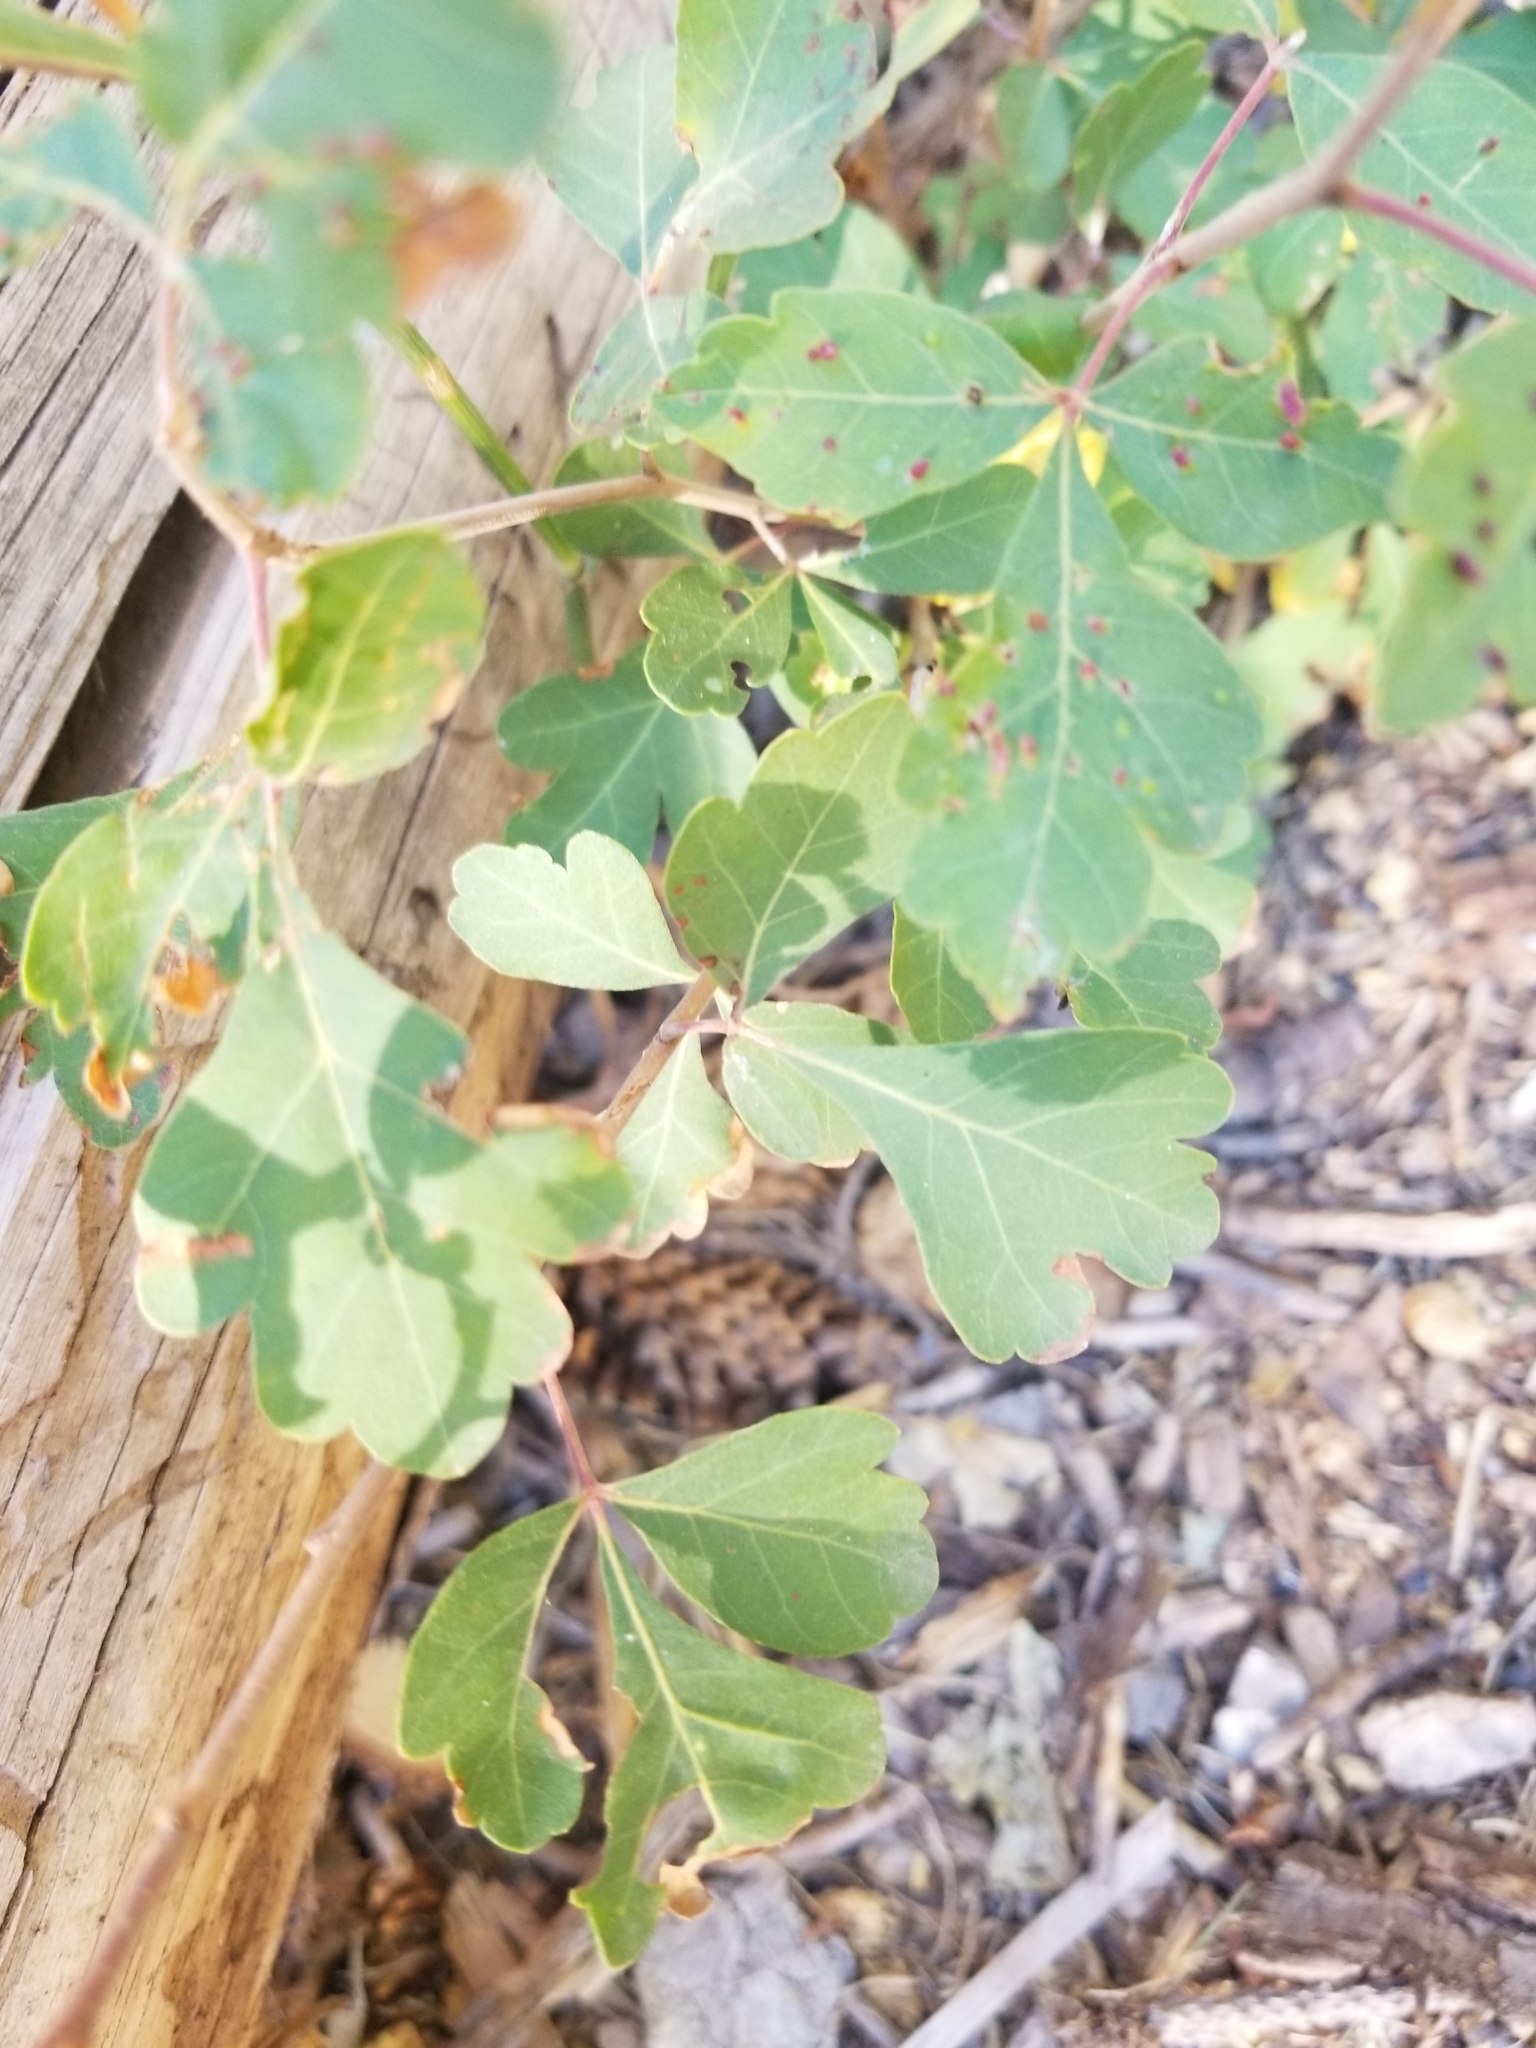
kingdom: Plantae
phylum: Tracheophyta
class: Magnoliopsida
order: Sapindales
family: Anacardiaceae
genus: Rhus
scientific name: Rhus aromatica
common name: Aromatic sumac
